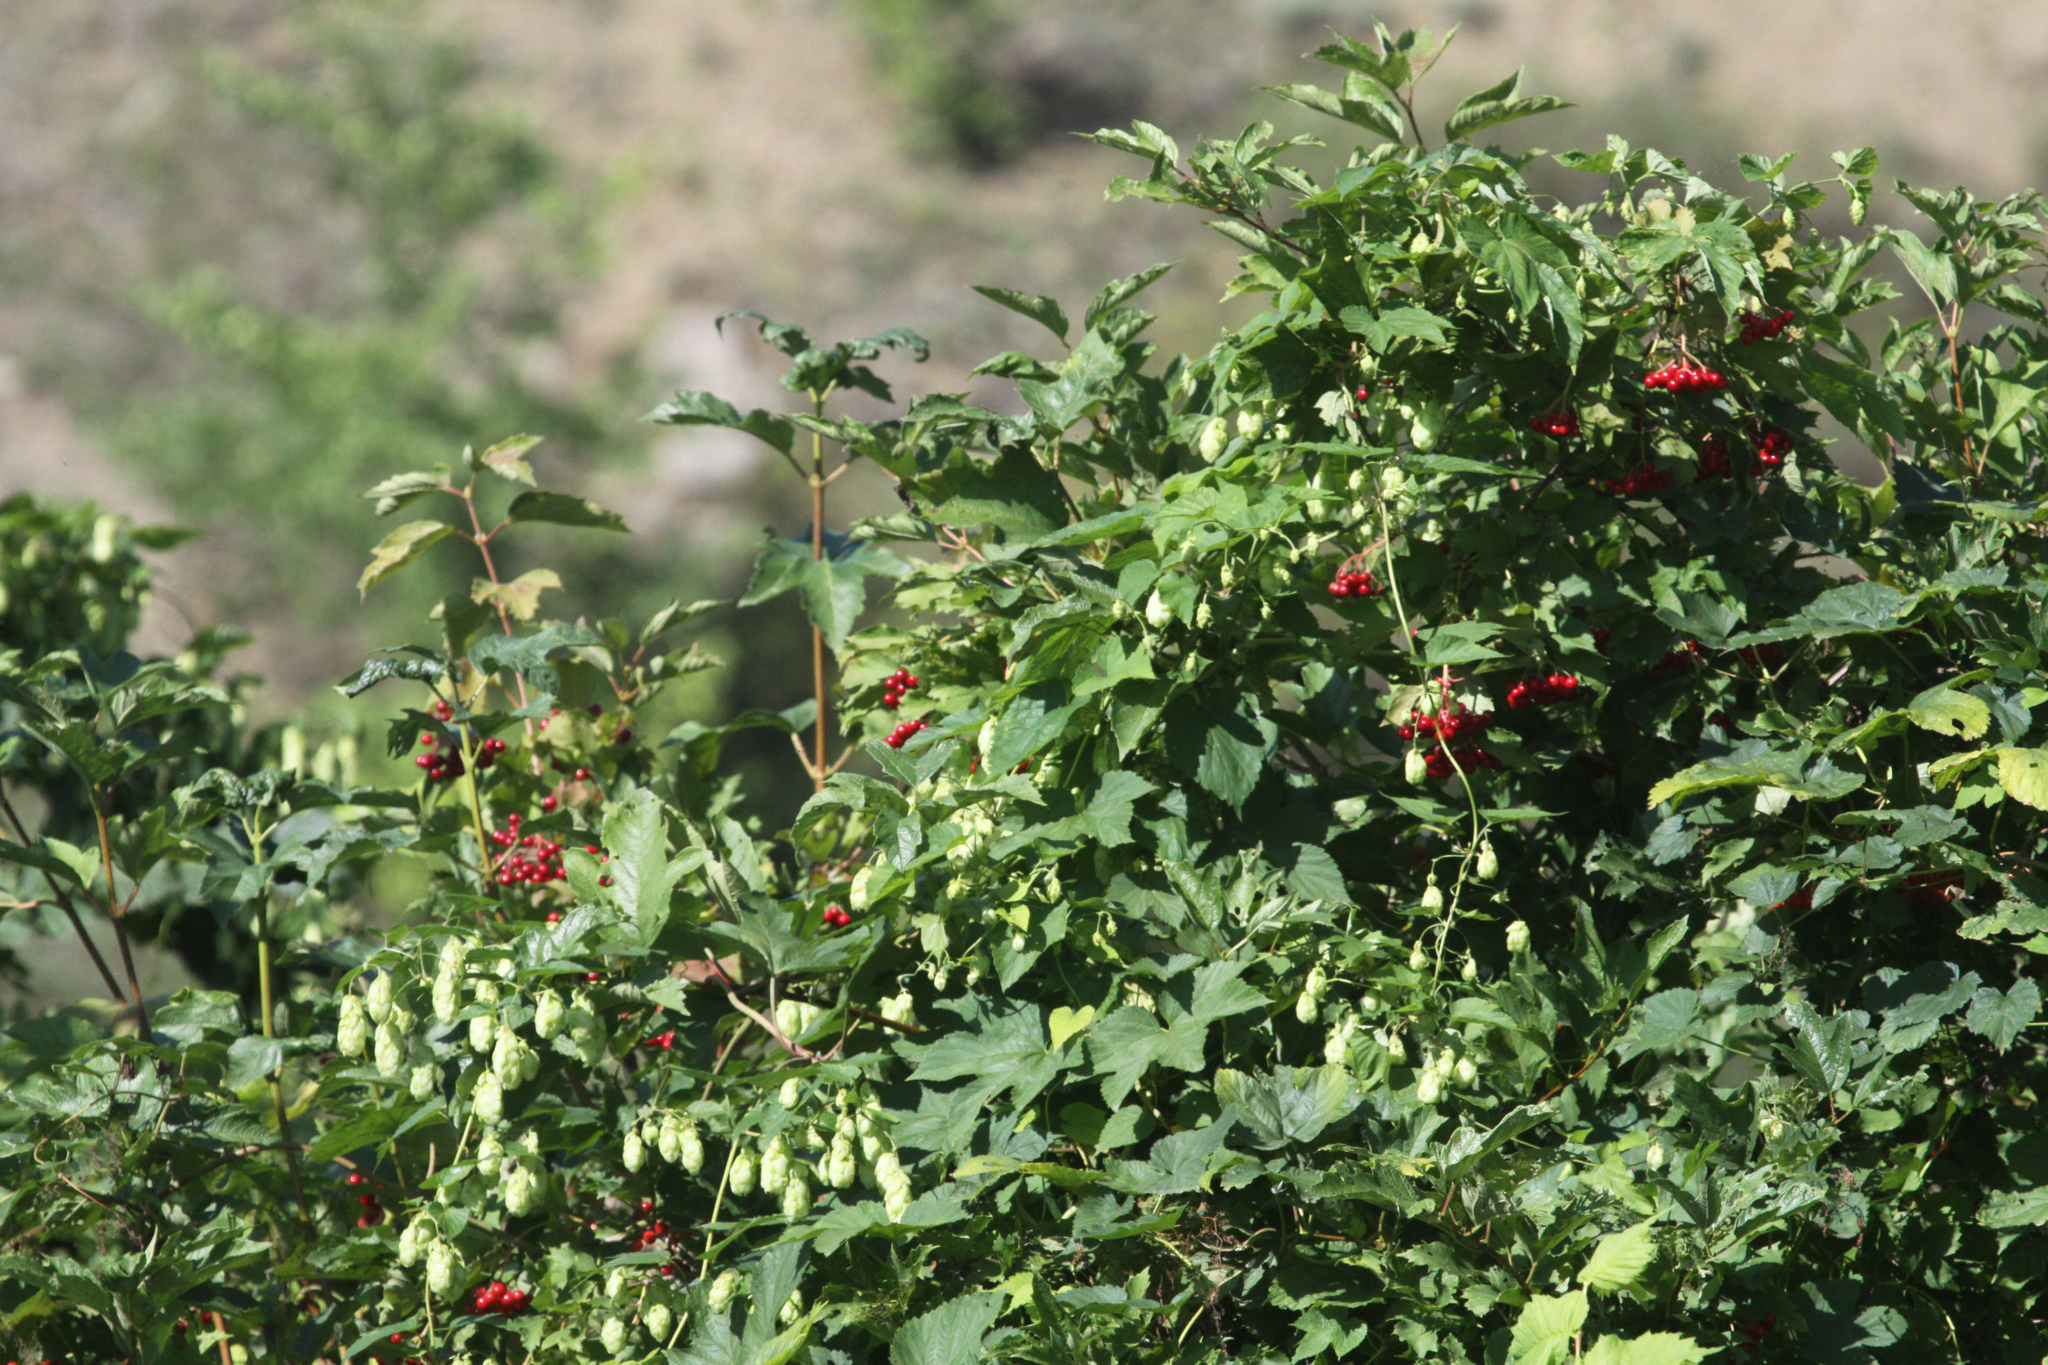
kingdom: Plantae
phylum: Tracheophyta
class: Magnoliopsida
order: Dipsacales
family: Viburnaceae
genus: Viburnum
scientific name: Viburnum opulus
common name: Guelder-rose
